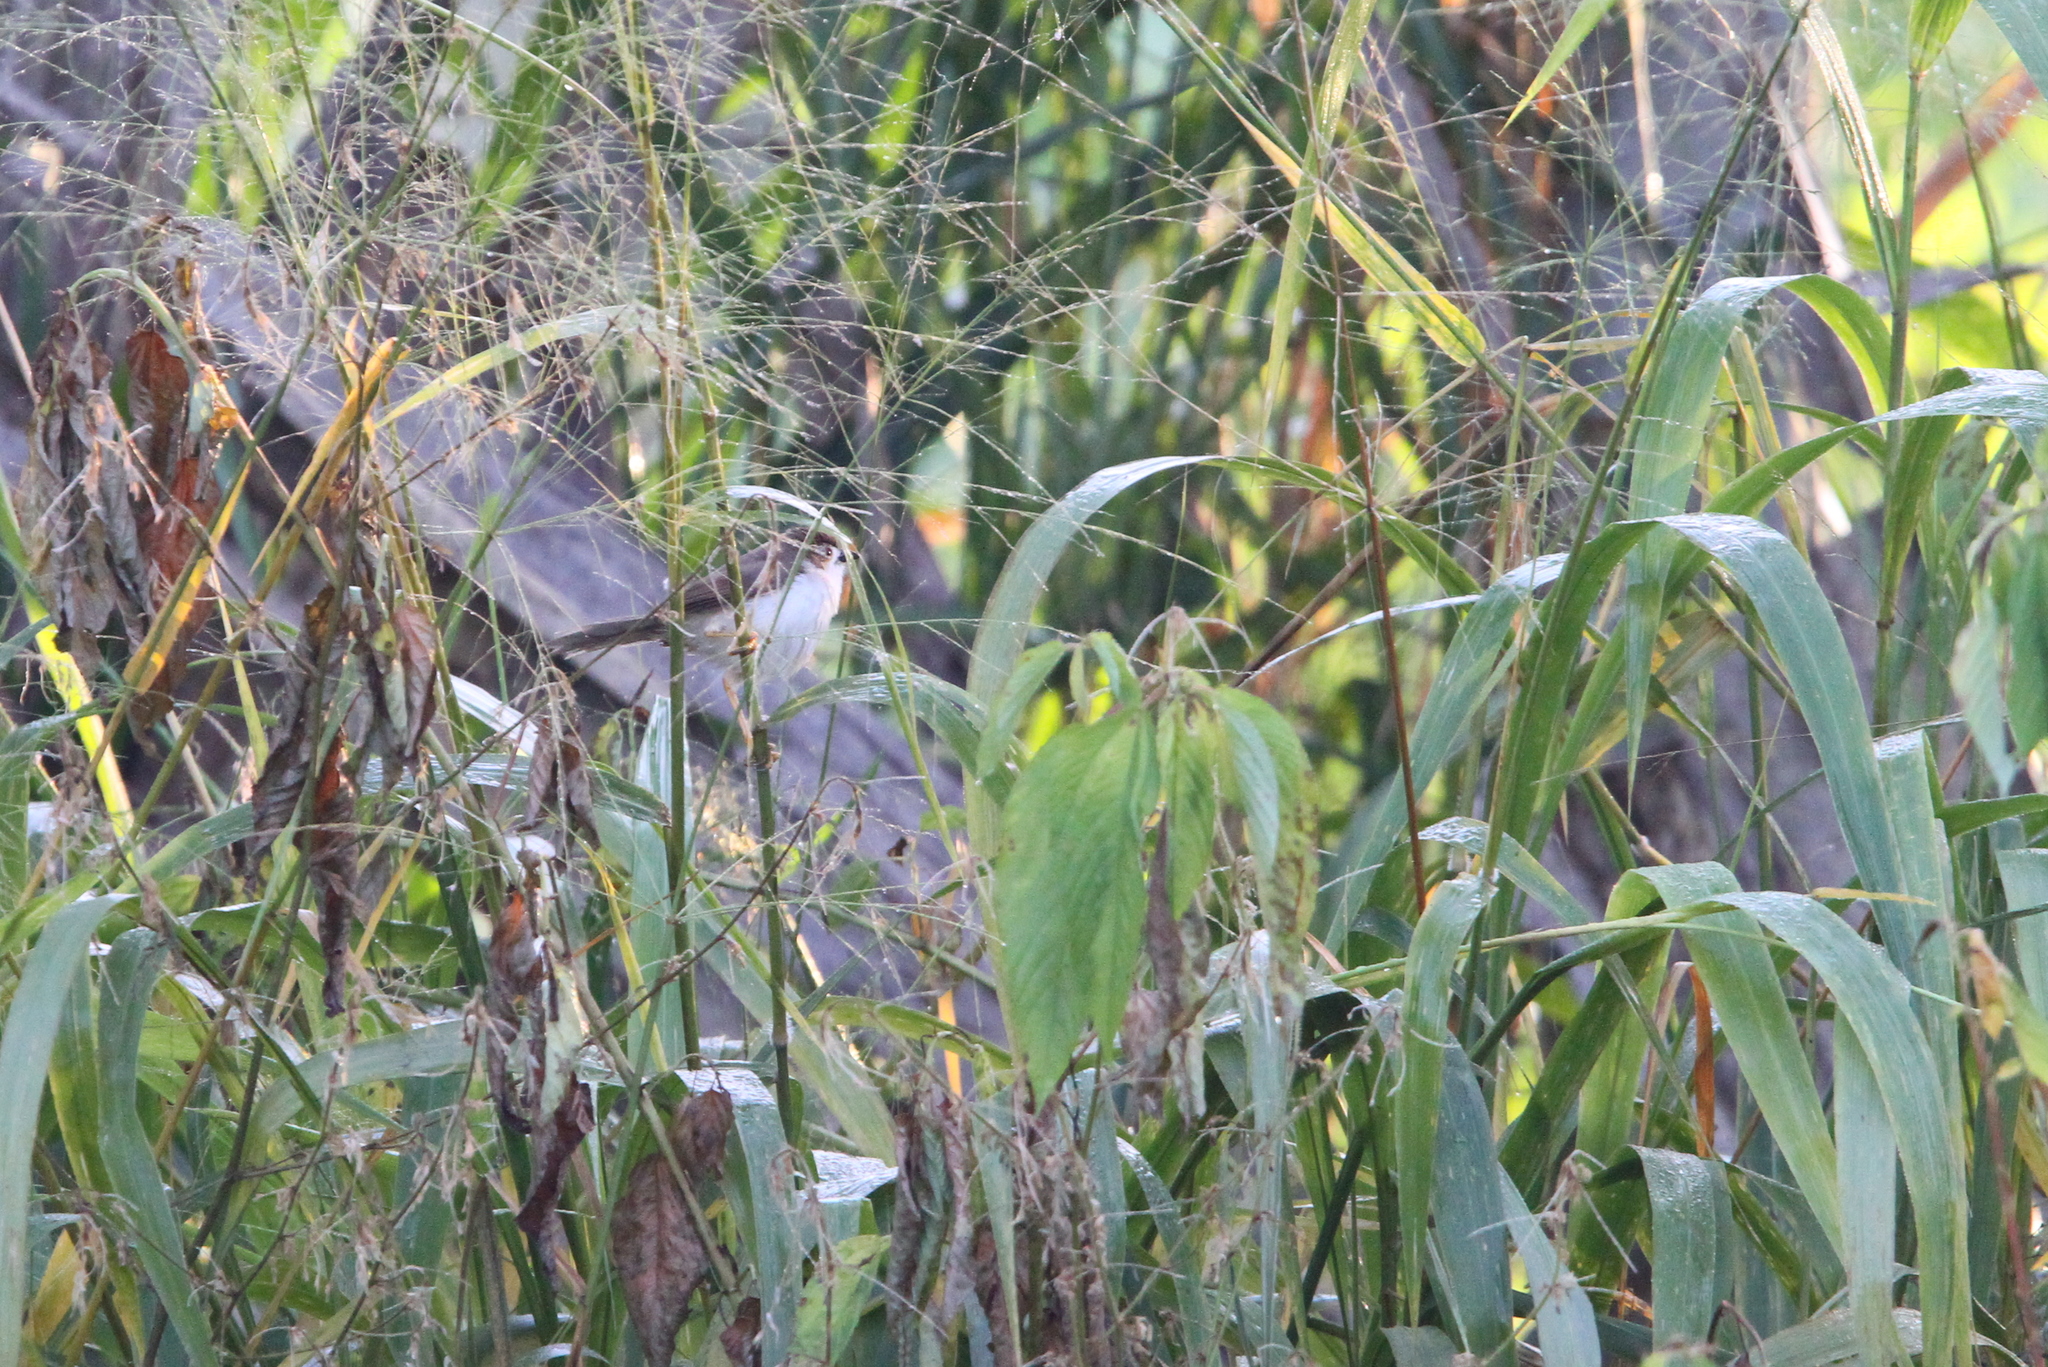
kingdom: Animalia
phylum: Chordata
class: Aves
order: Passeriformes
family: Sylviidae
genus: Chrysomma
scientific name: Chrysomma sinense
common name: Yellow-eyed babbler
